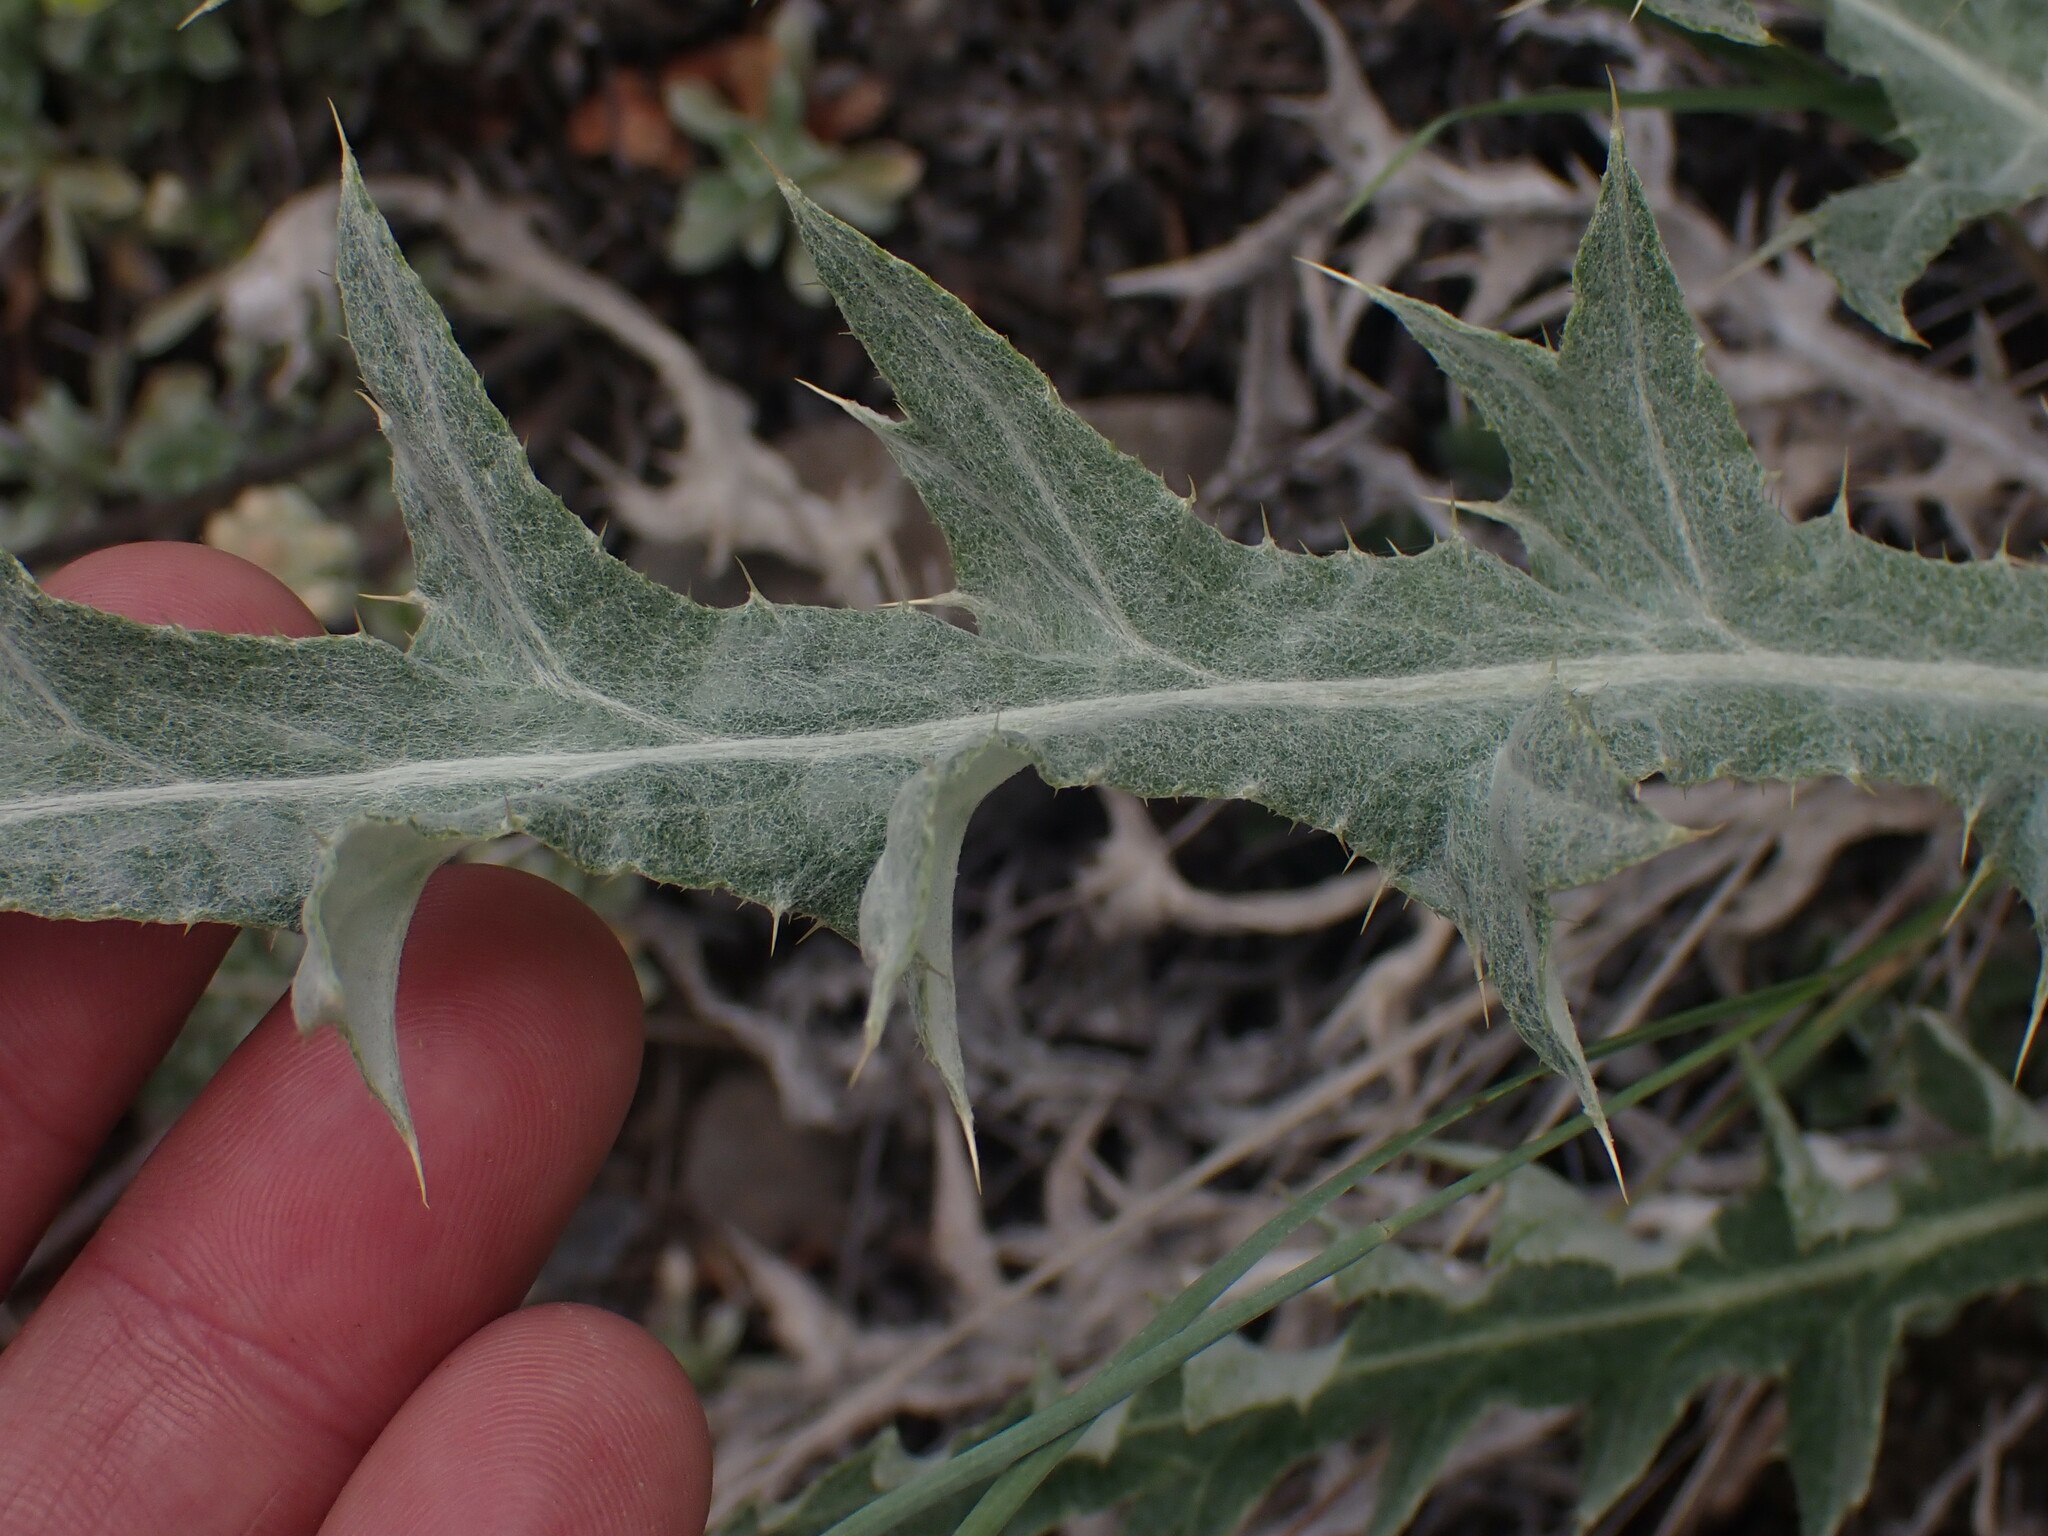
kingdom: Plantae
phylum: Tracheophyta
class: Magnoliopsida
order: Asterales
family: Asteraceae
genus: Cirsium
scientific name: Cirsium undulatum
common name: Pasture thistle
